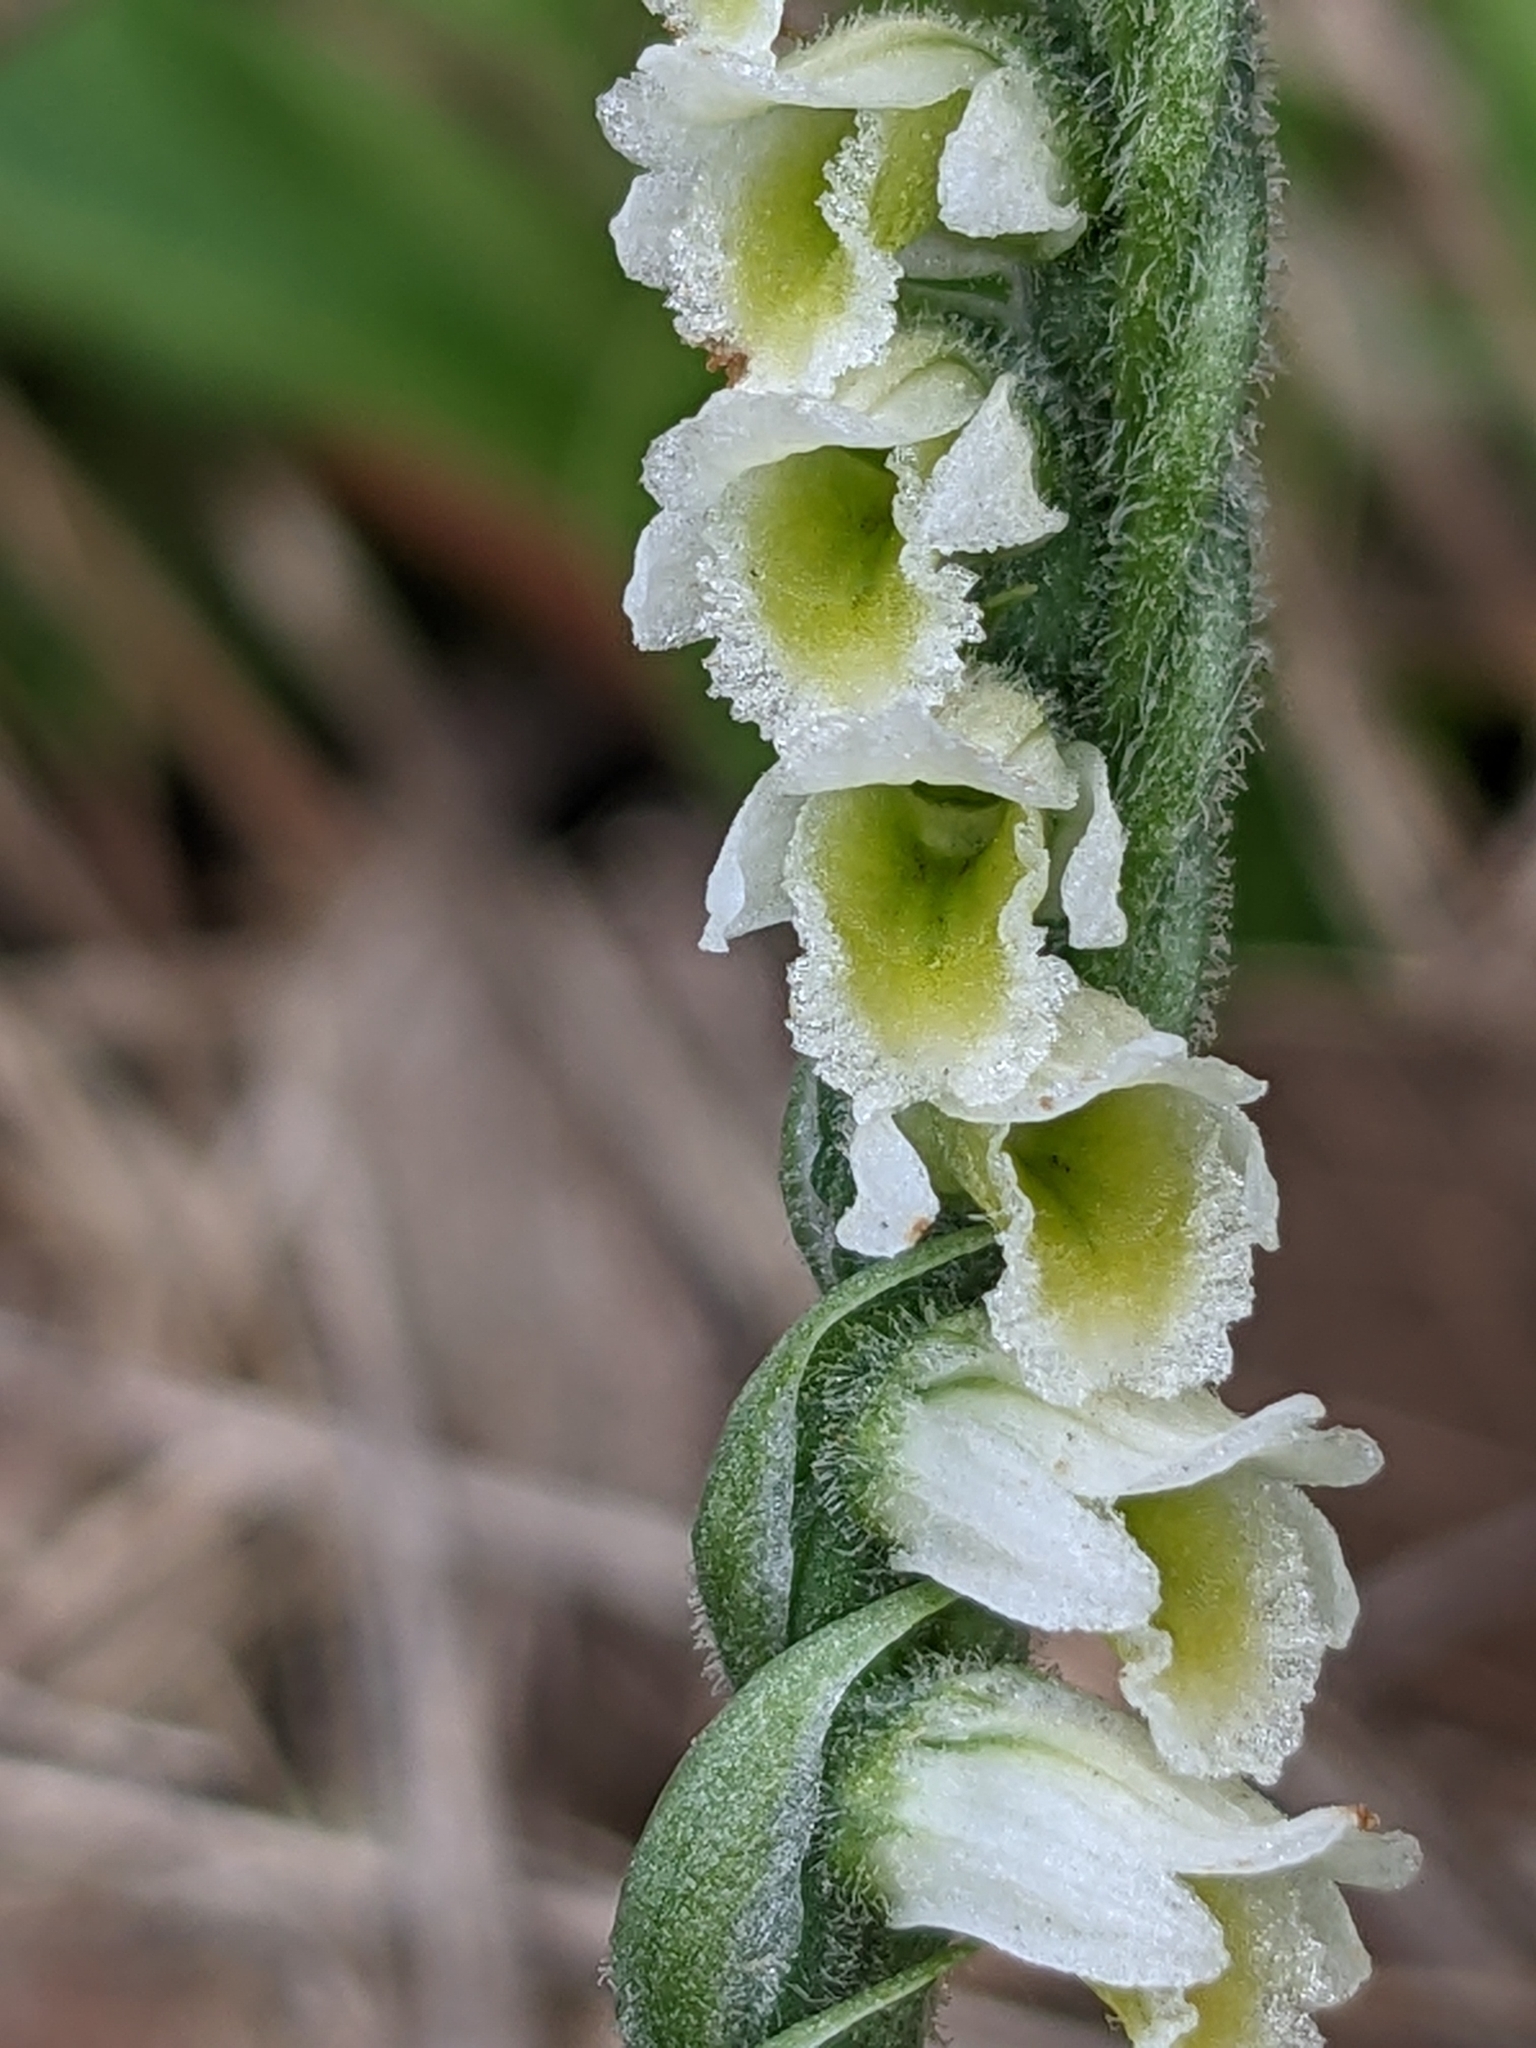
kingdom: Plantae
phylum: Tracheophyta
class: Liliopsida
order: Asparagales
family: Orchidaceae
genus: Spiranthes
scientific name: Spiranthes spiralis
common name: Autumn lady's-tresses
